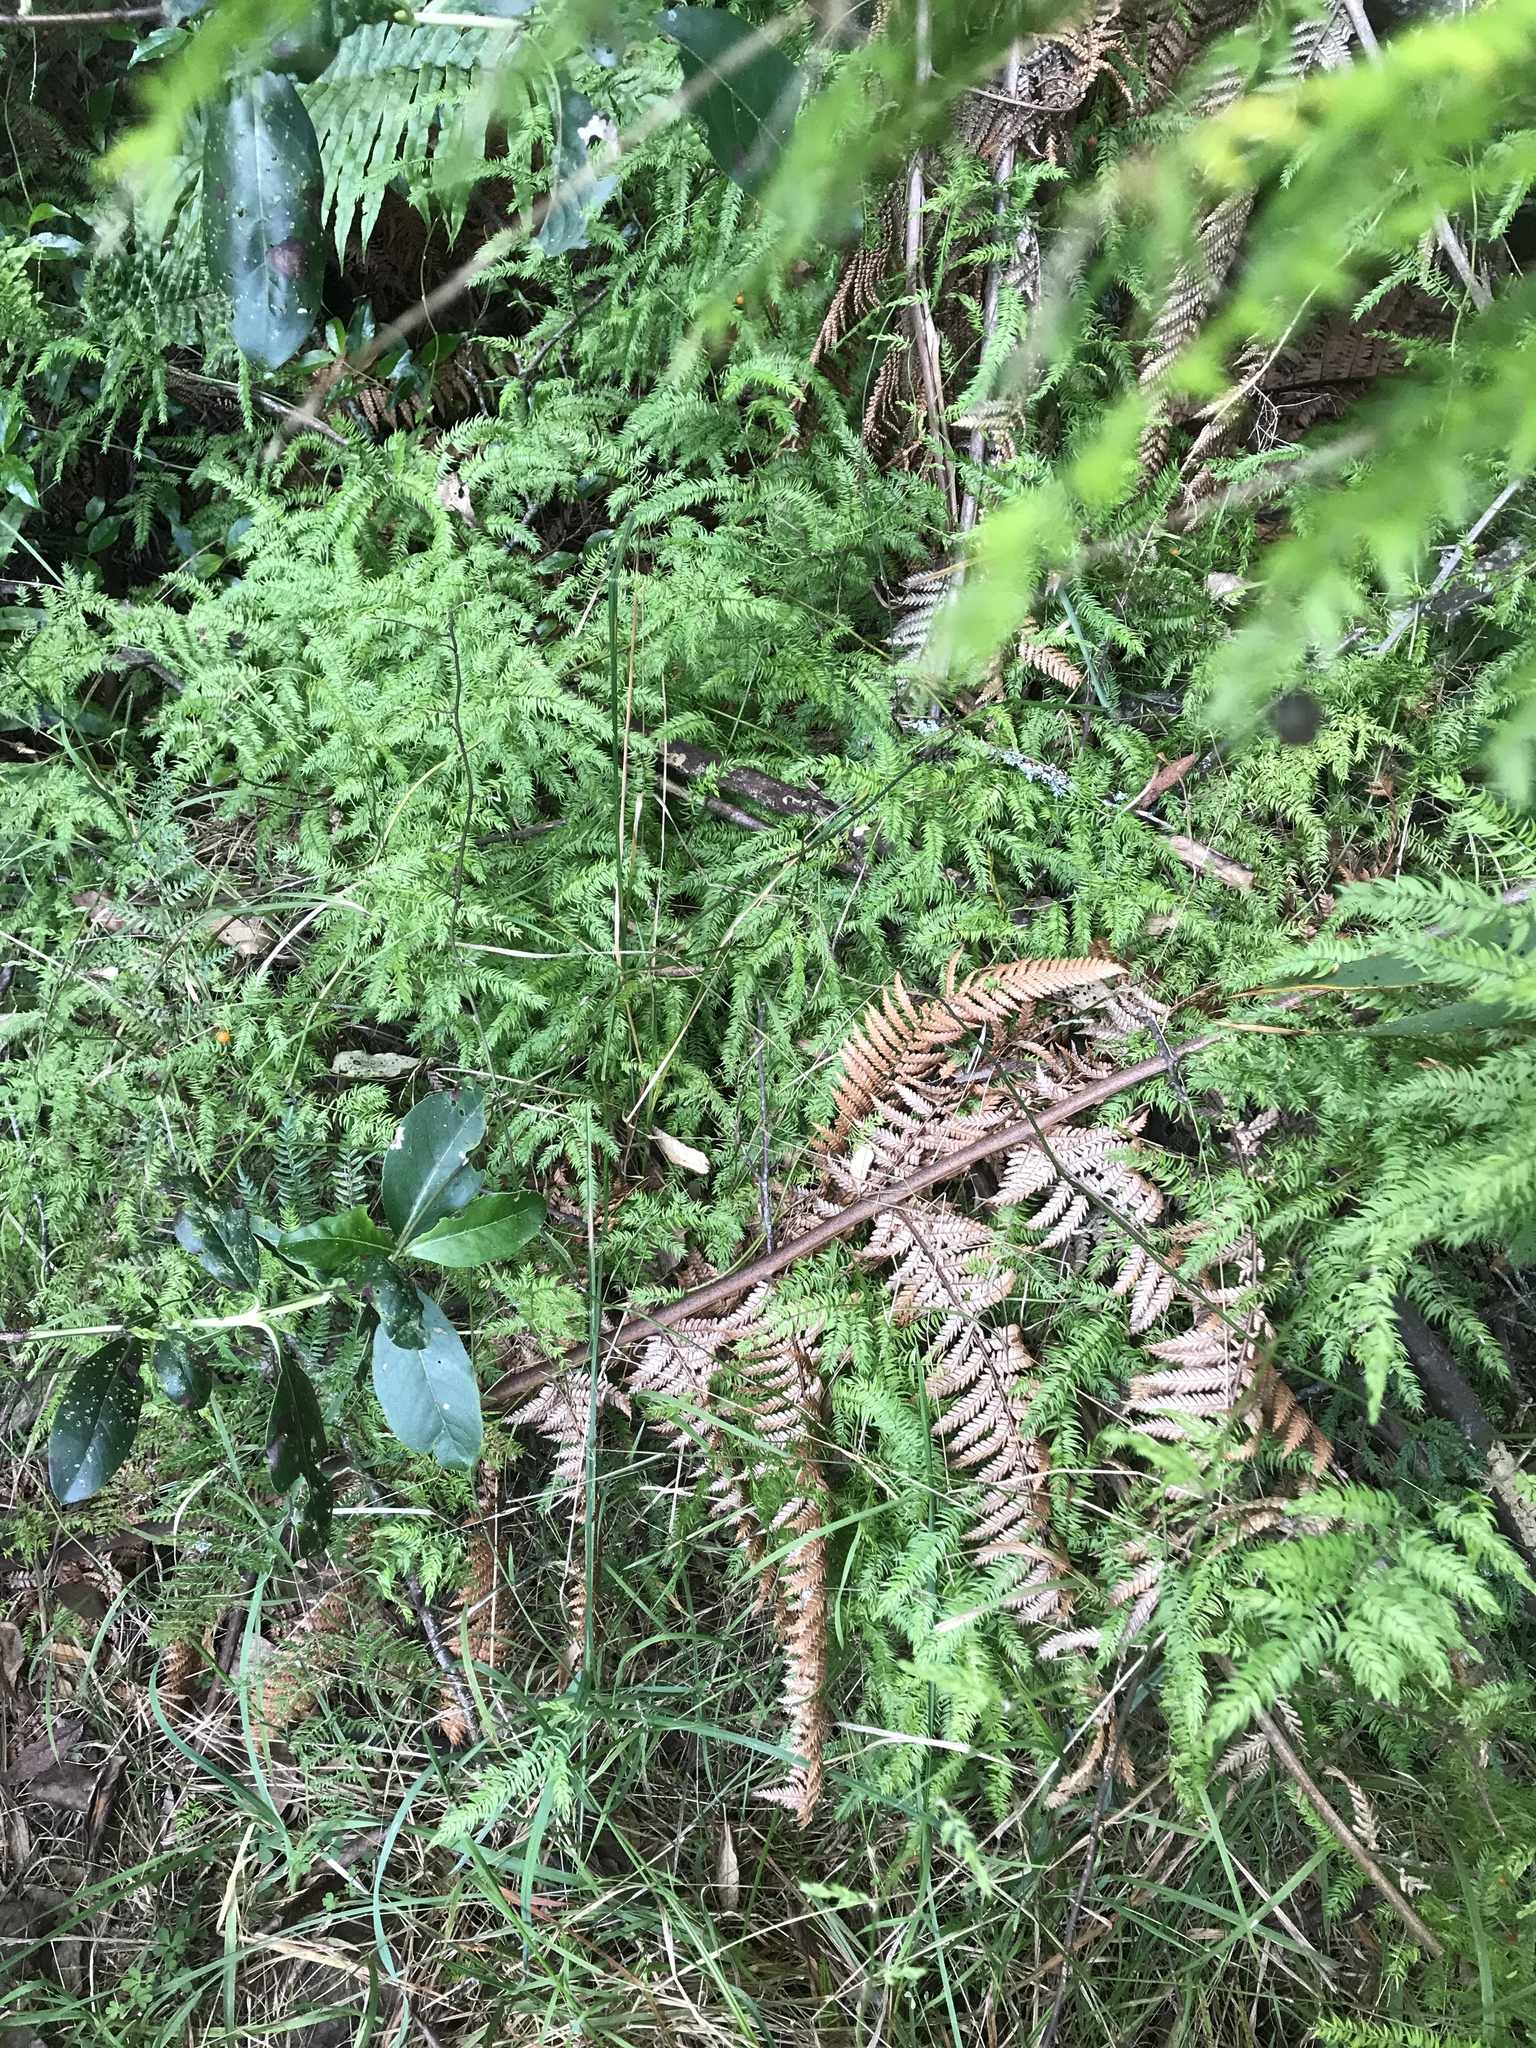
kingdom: Plantae
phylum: Tracheophyta
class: Liliopsida
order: Asparagales
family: Asparagaceae
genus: Asparagus
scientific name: Asparagus scandens
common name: Asparagus-fern
